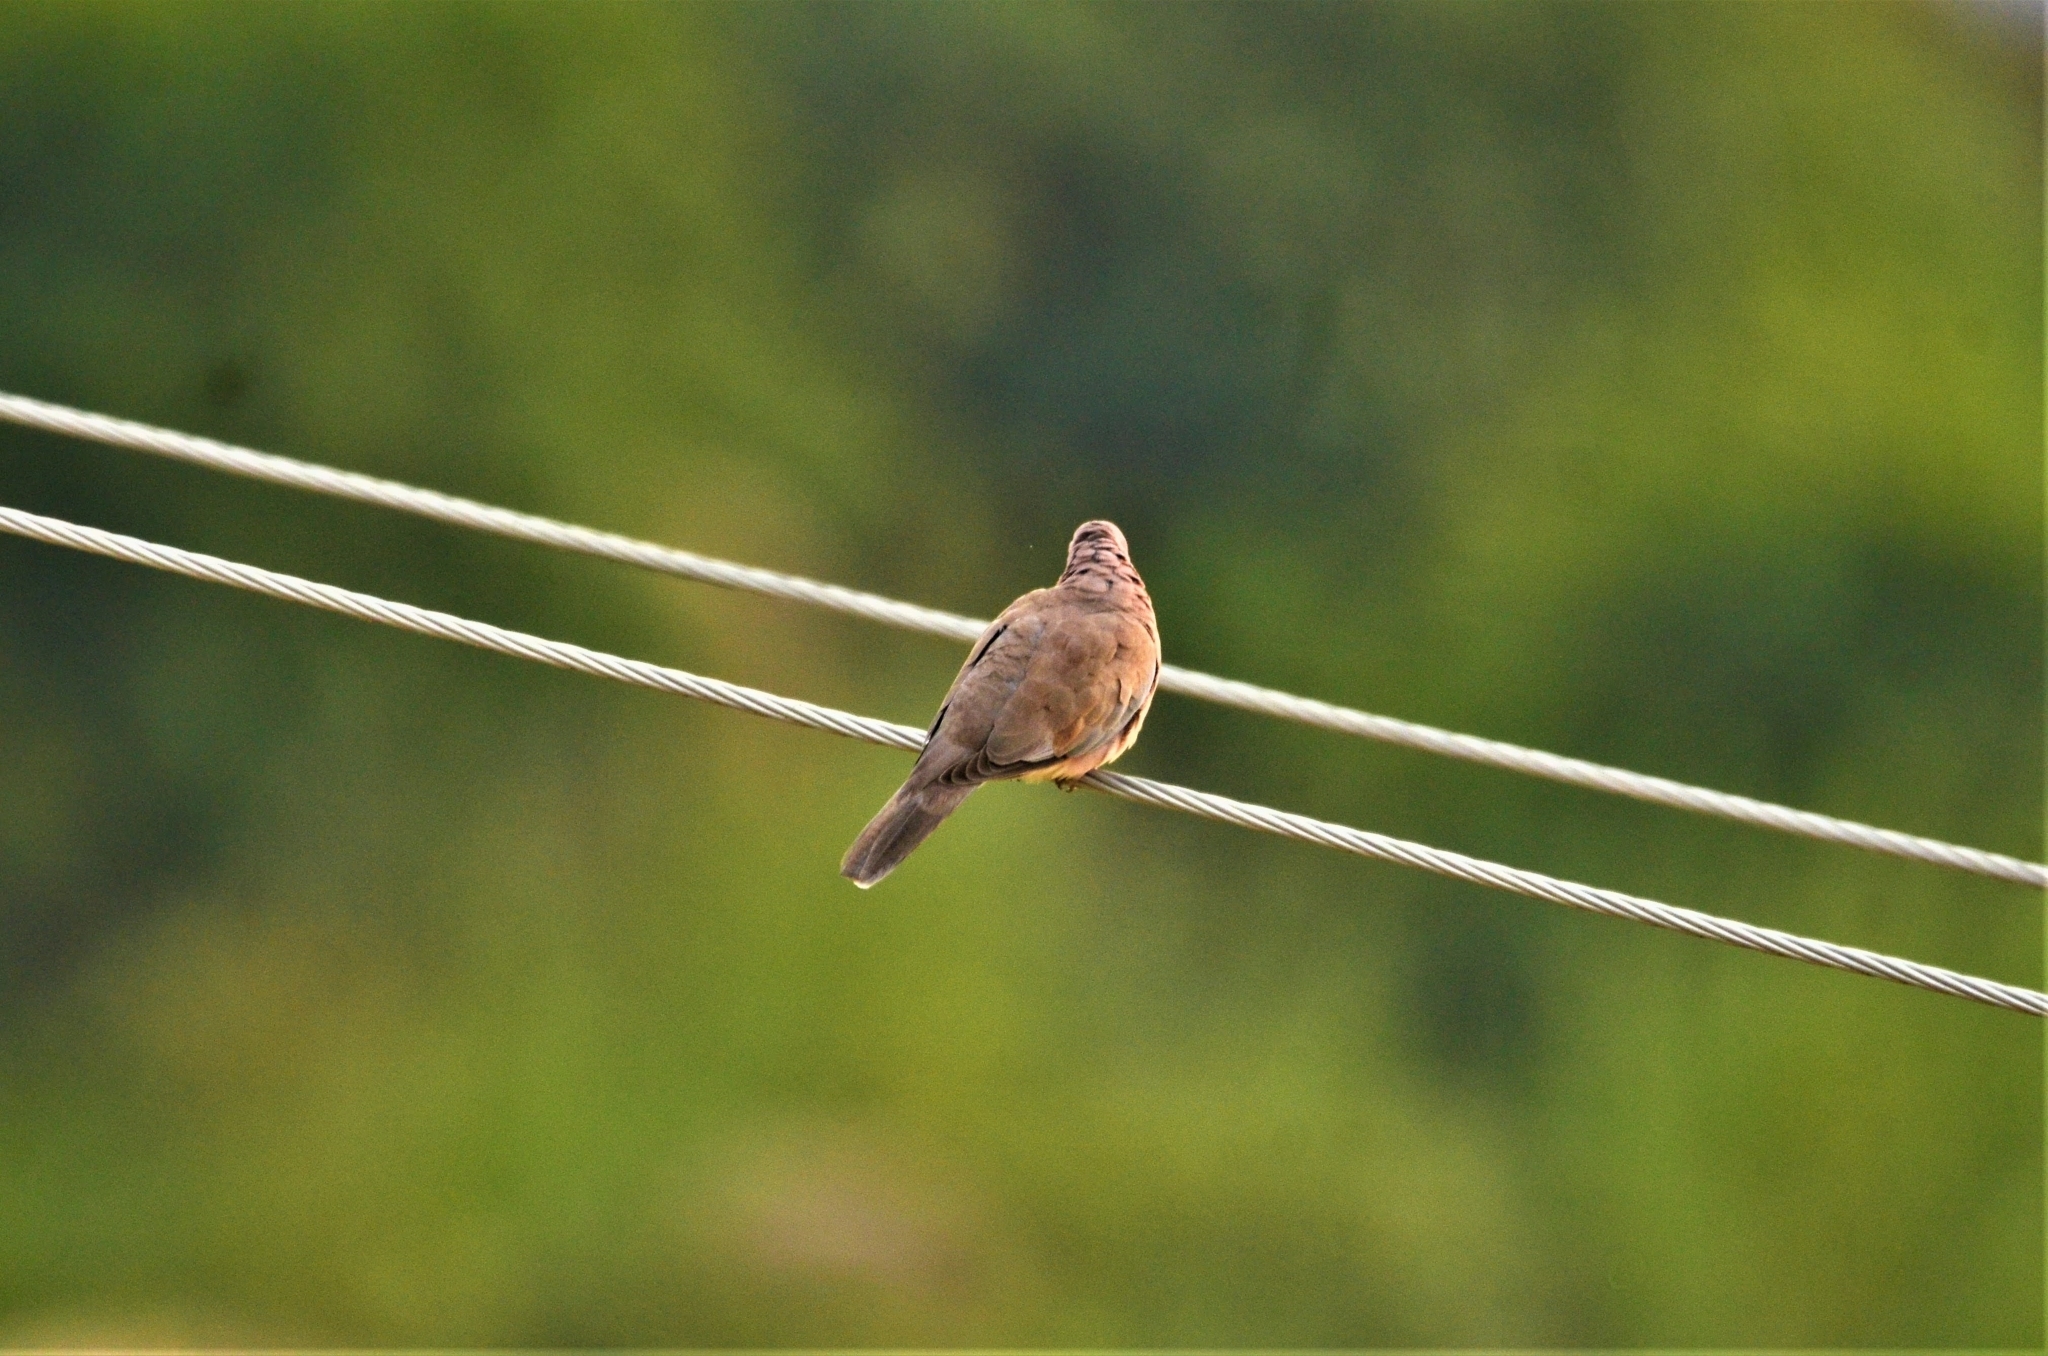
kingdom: Animalia
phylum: Chordata
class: Aves
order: Columbiformes
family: Columbidae
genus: Spilopelia
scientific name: Spilopelia senegalensis
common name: Laughing dove
